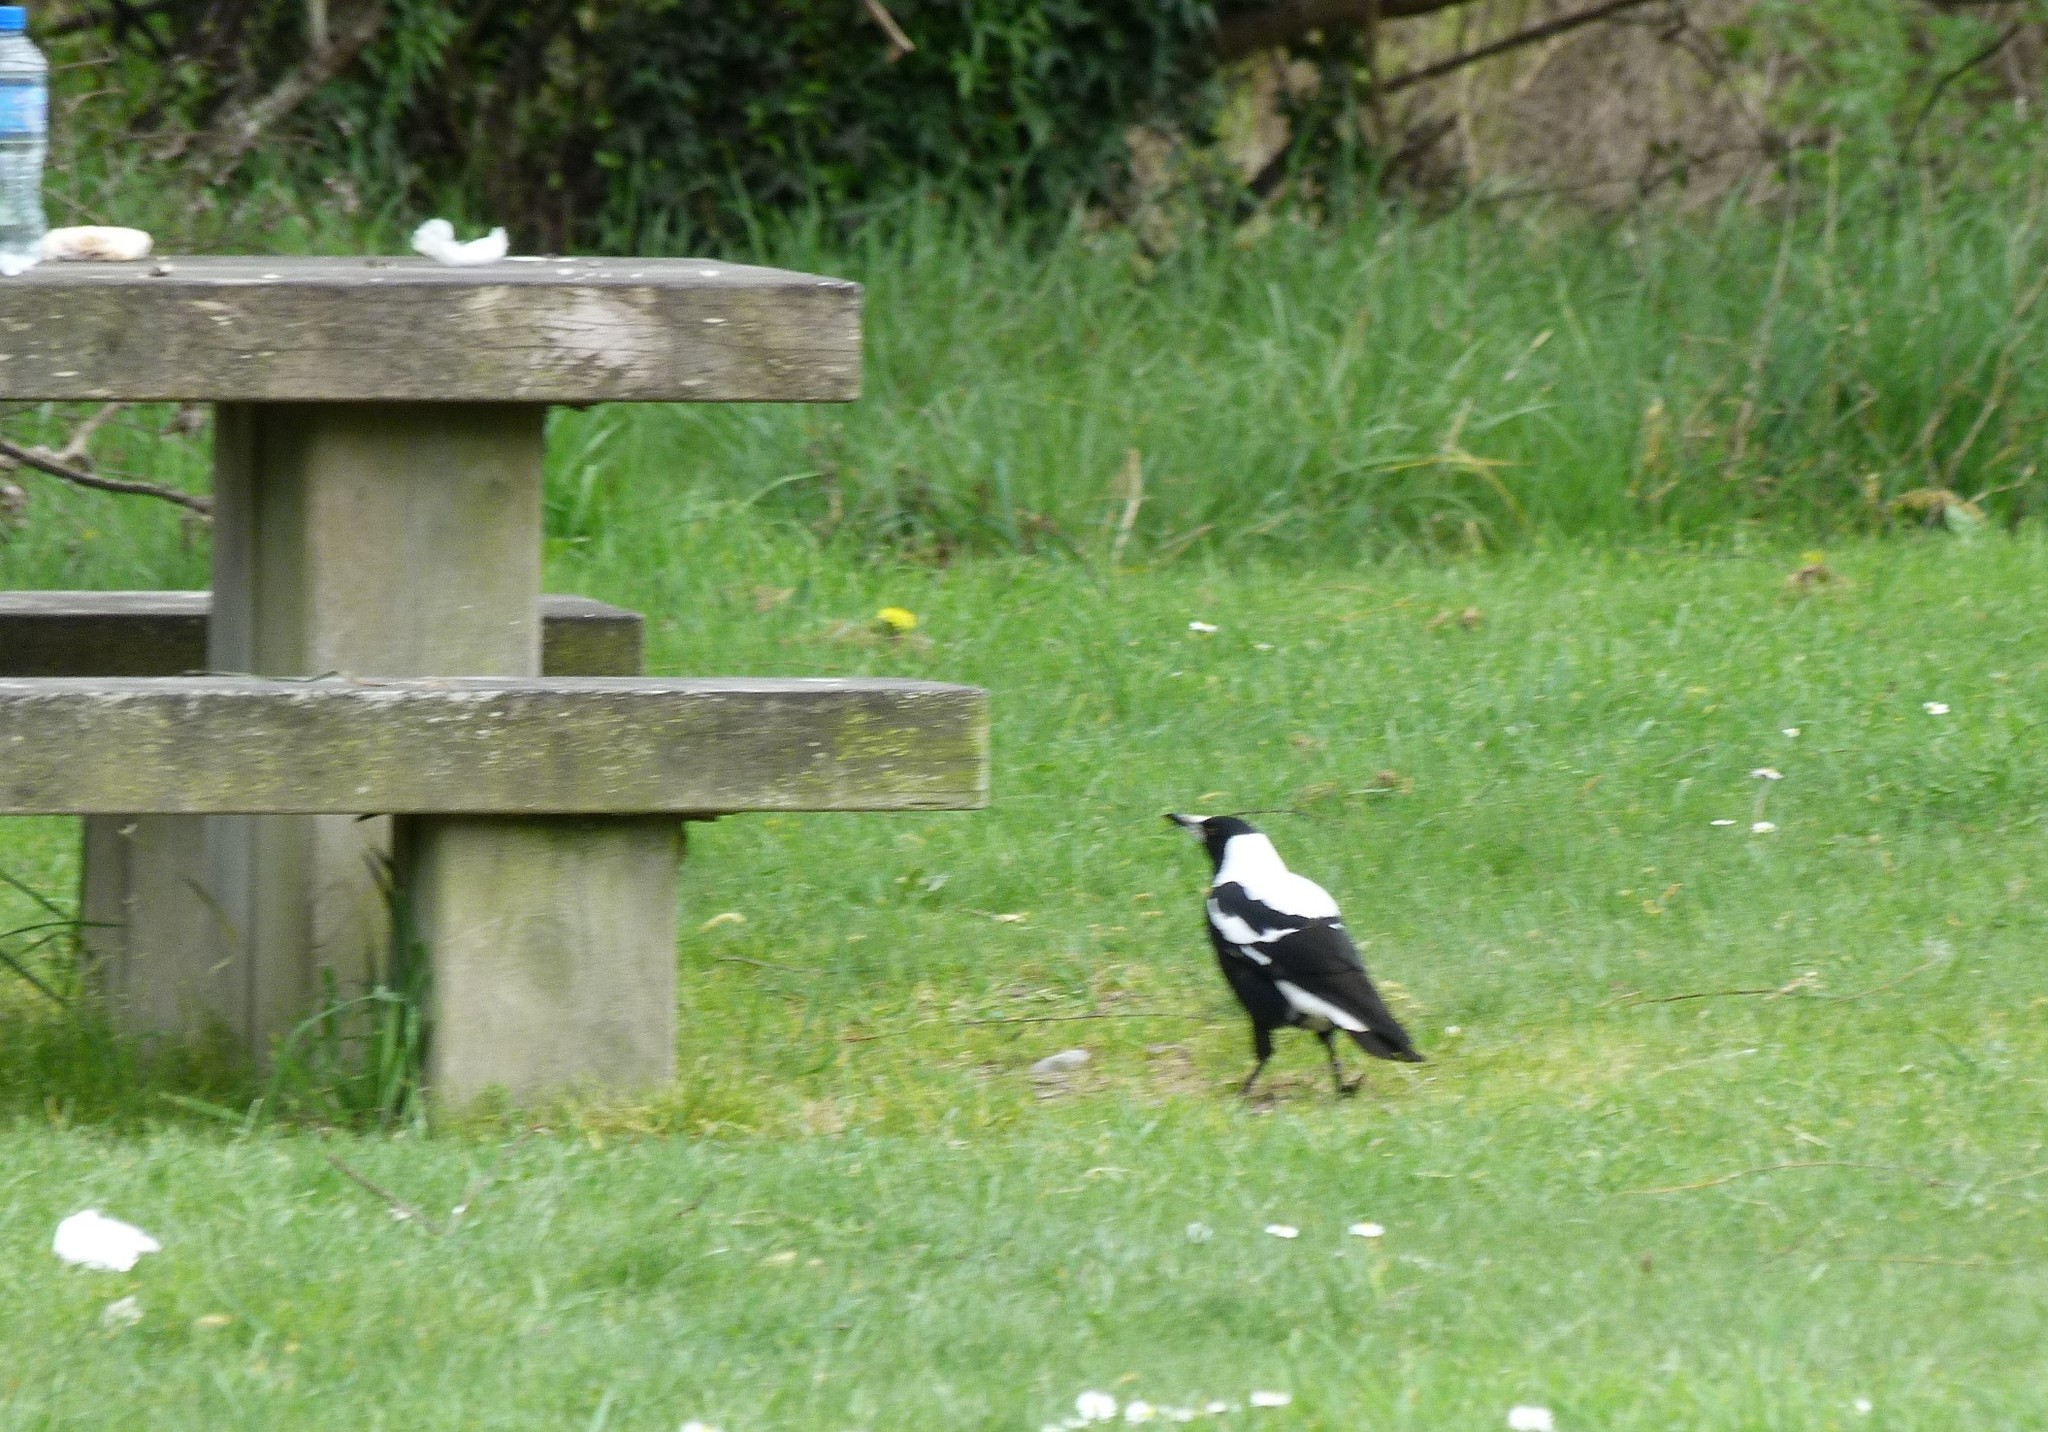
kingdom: Animalia
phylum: Chordata
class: Aves
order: Passeriformes
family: Cracticidae
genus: Gymnorhina
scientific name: Gymnorhina tibicen
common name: Australian magpie
